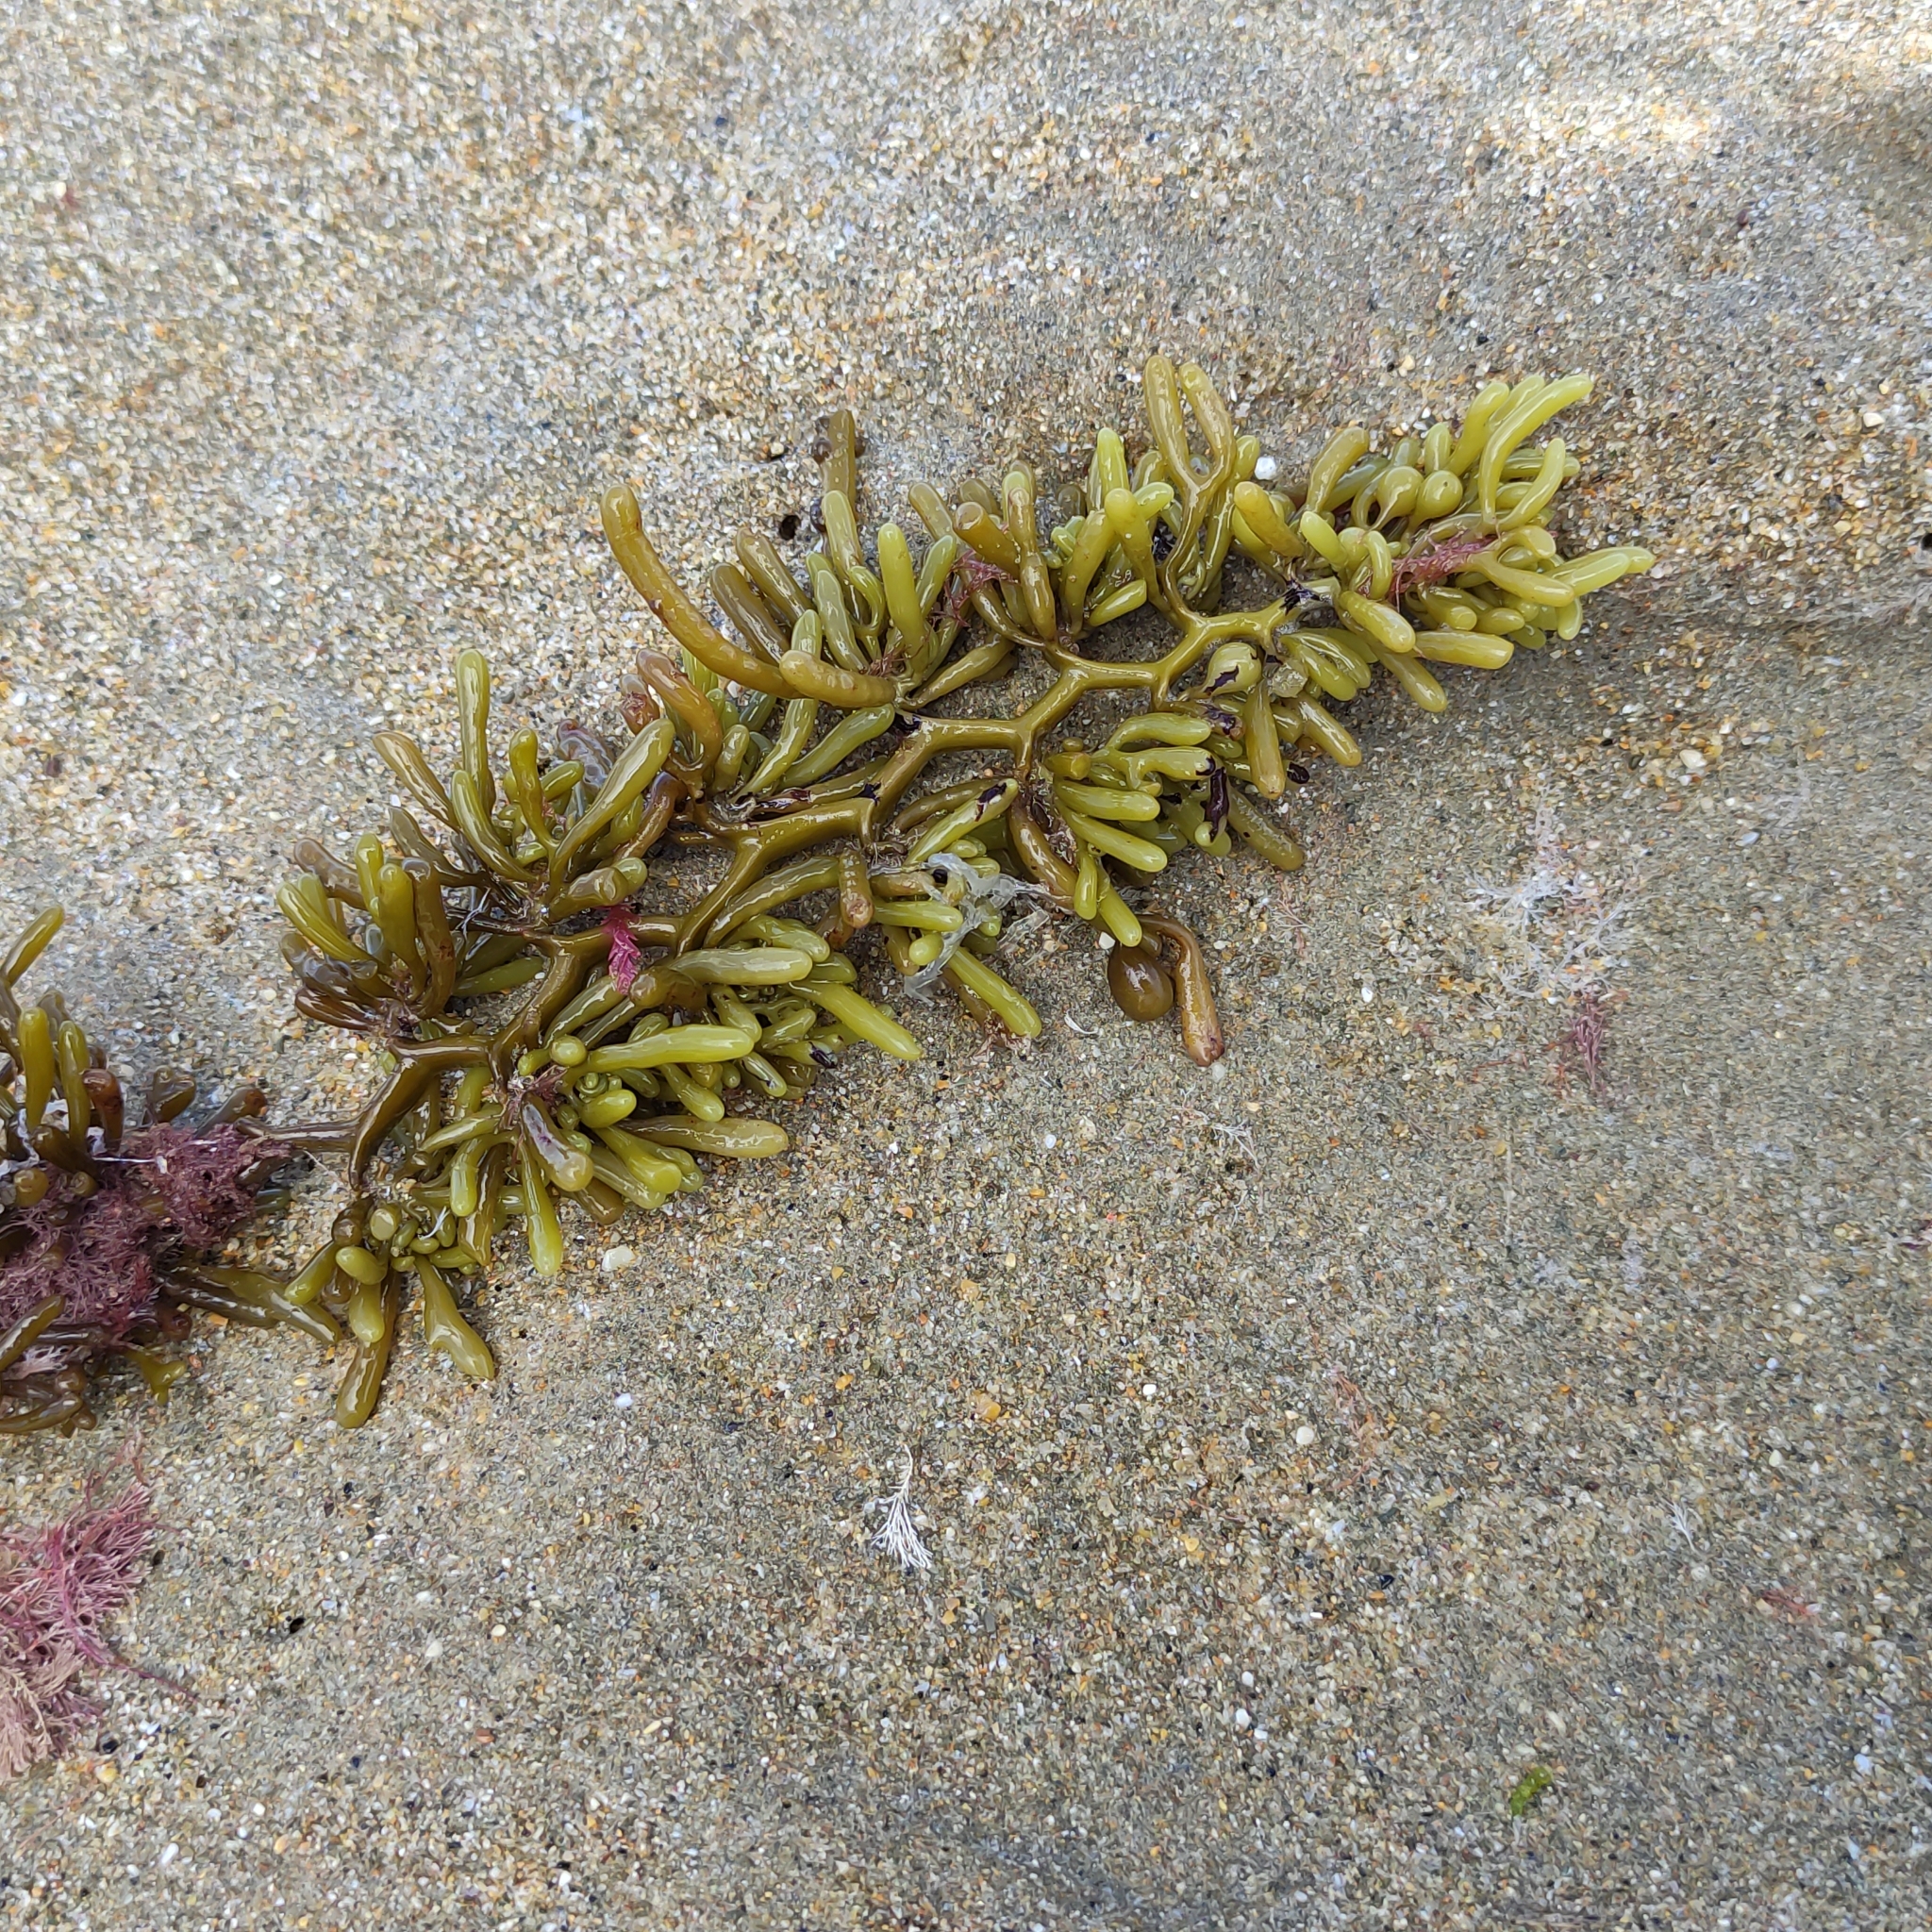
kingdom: Chromista
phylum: Ochrophyta
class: Phaeophyceae
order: Fucales
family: Sargassaceae
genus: Cystophora
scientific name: Cystophora torulosa
